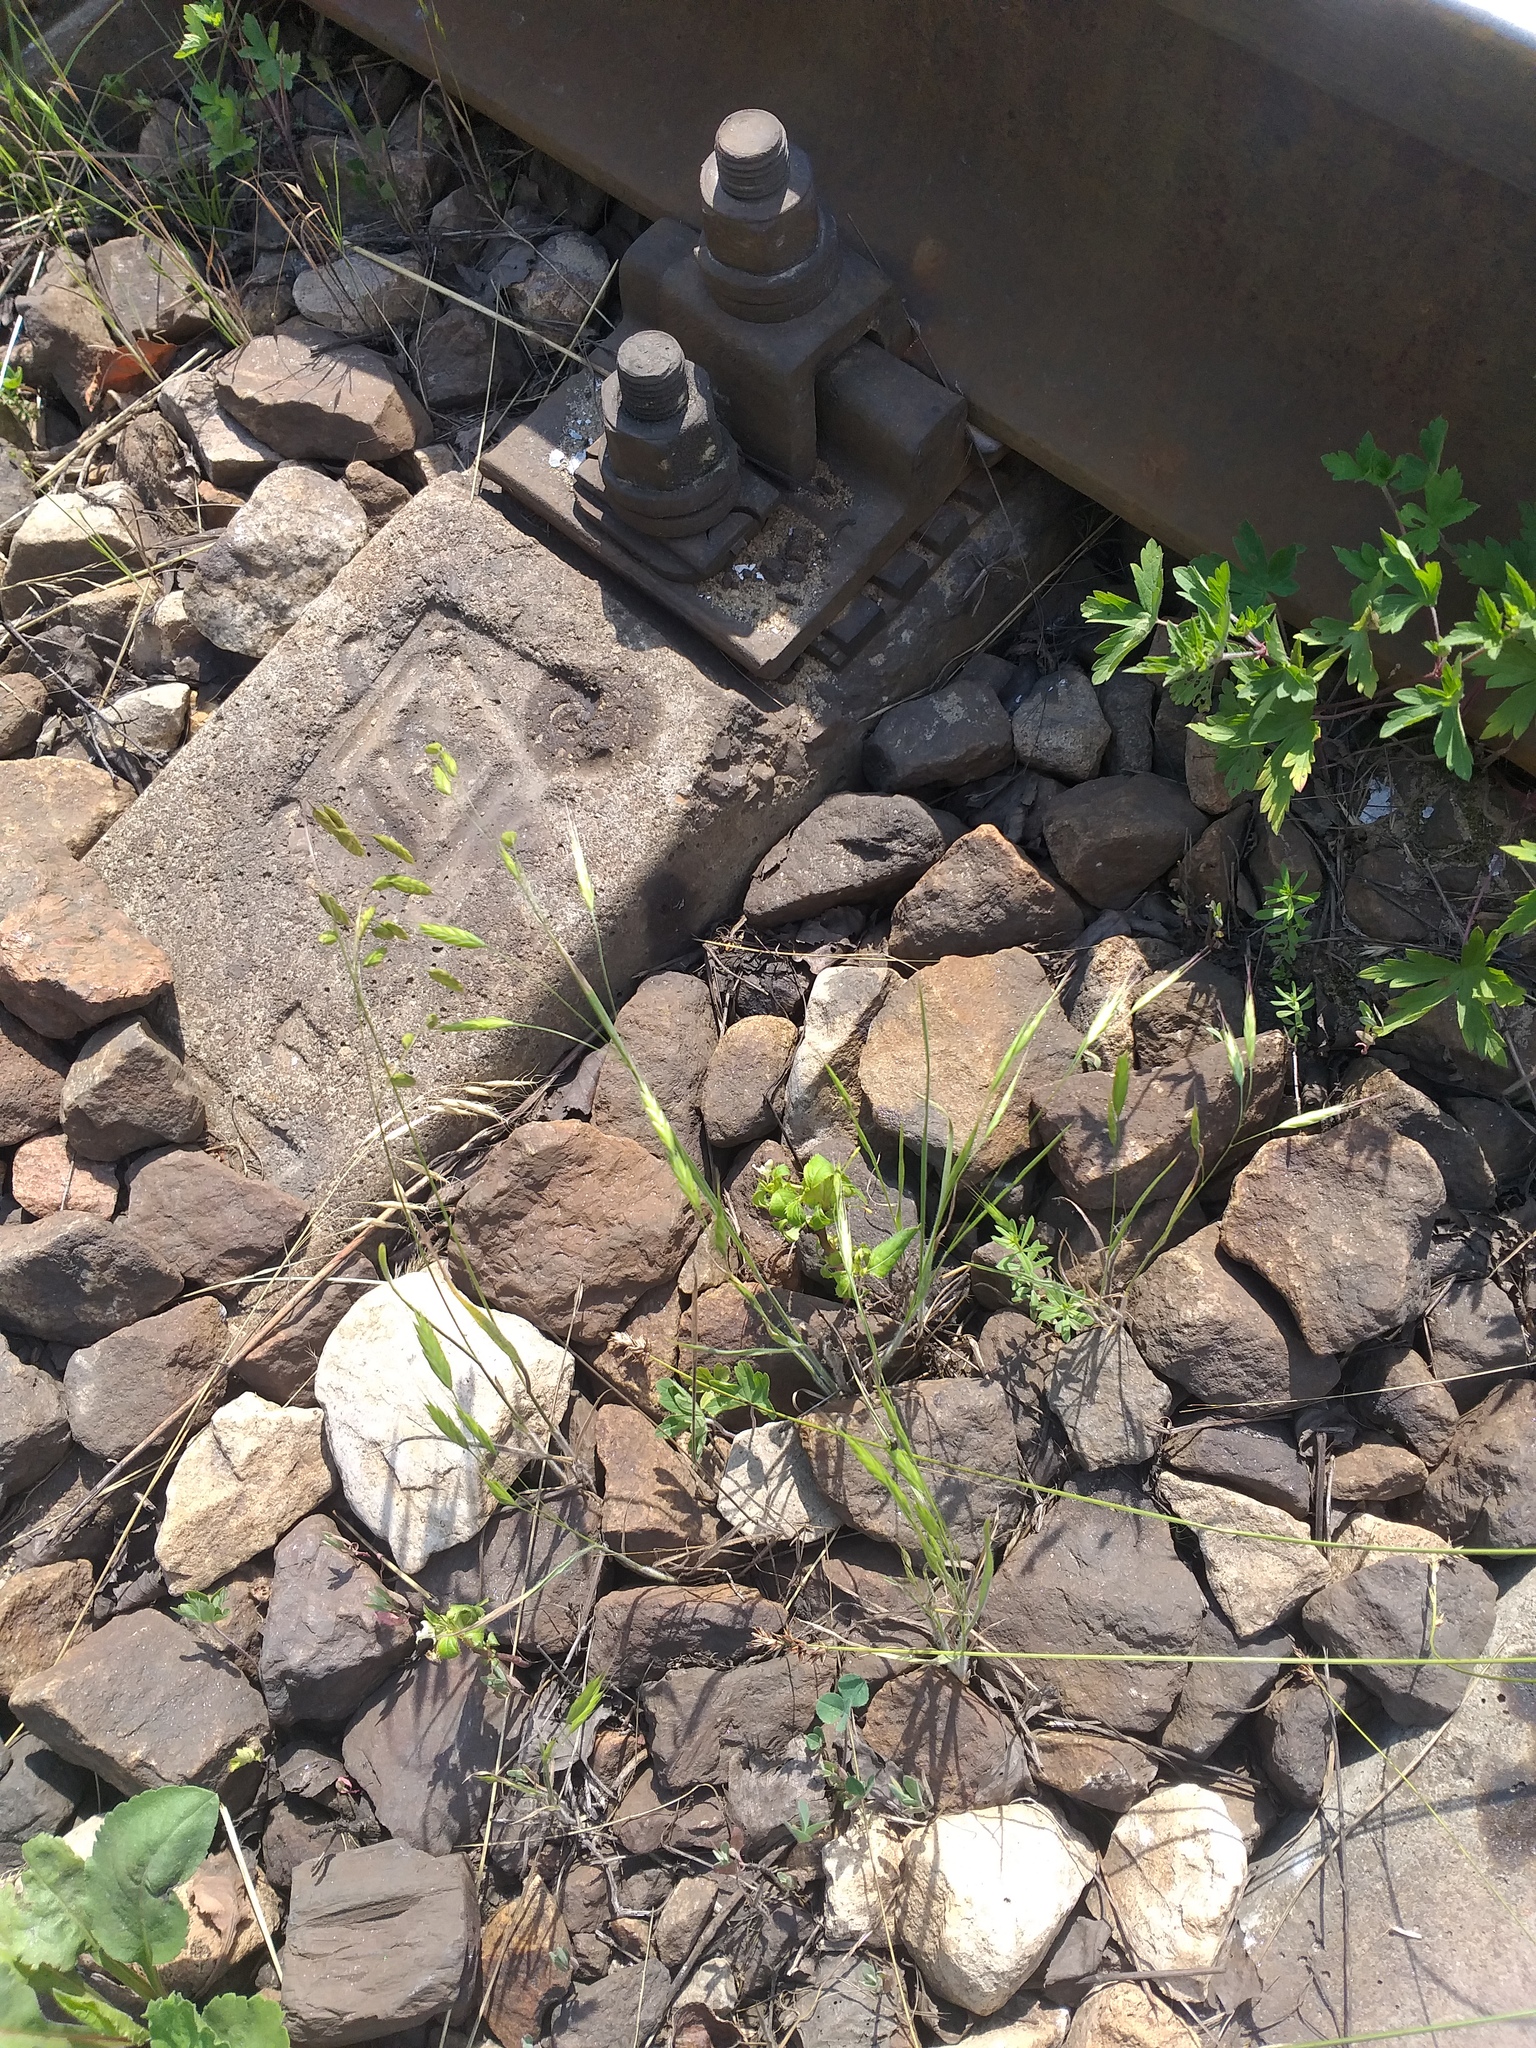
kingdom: Plantae
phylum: Tracheophyta
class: Liliopsida
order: Poales
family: Poaceae
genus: Bromus
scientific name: Bromus japonicus
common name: Japanese brome
